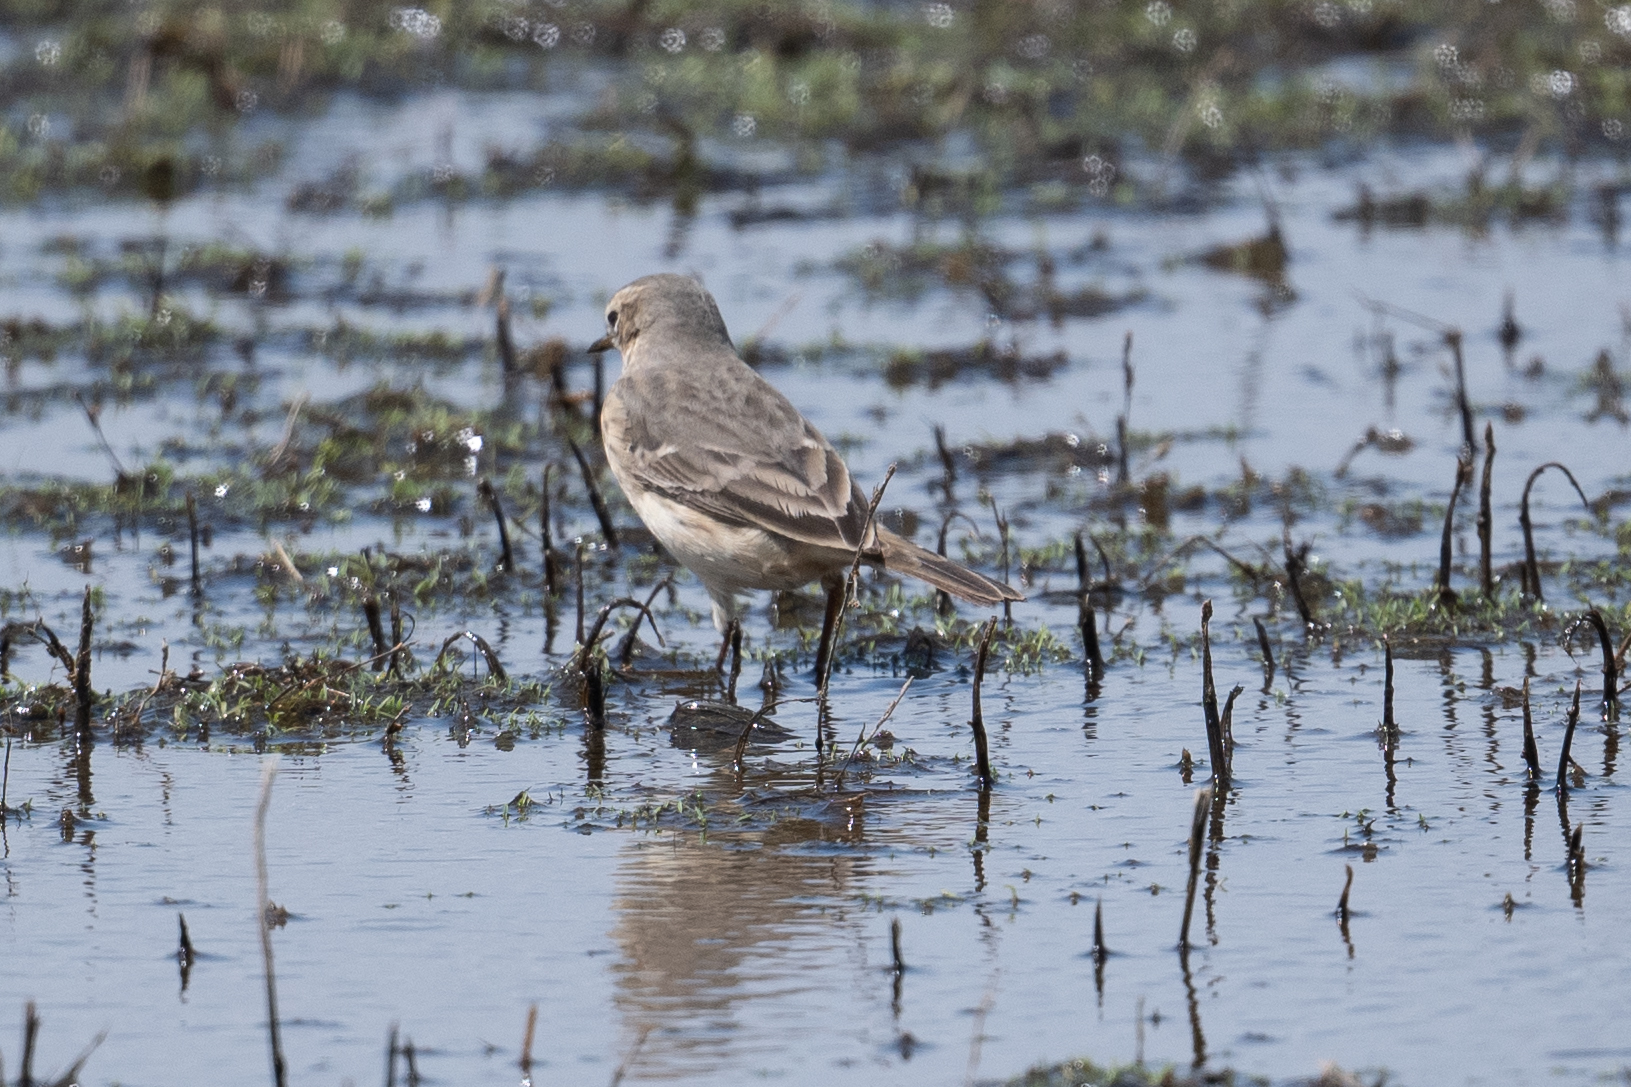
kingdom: Animalia
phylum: Chordata
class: Aves
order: Passeriformes
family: Motacillidae
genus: Anthus
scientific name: Anthus rubescens
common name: Buff-bellied pipit
